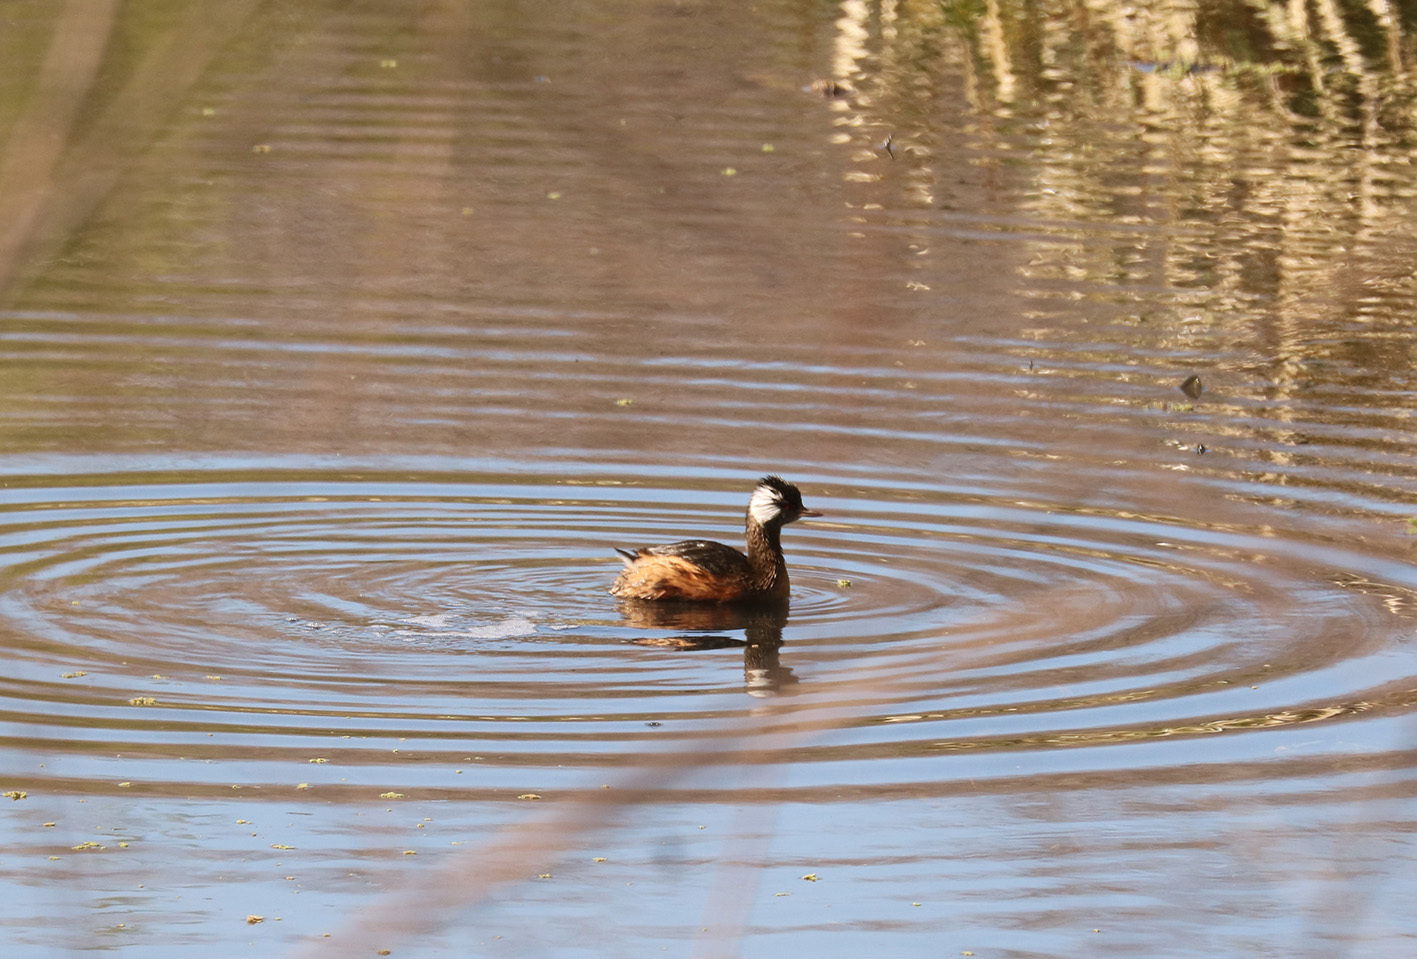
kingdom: Animalia
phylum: Chordata
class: Aves
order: Podicipediformes
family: Podicipedidae
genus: Rollandia
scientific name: Rollandia rolland
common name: White-tufted grebe
